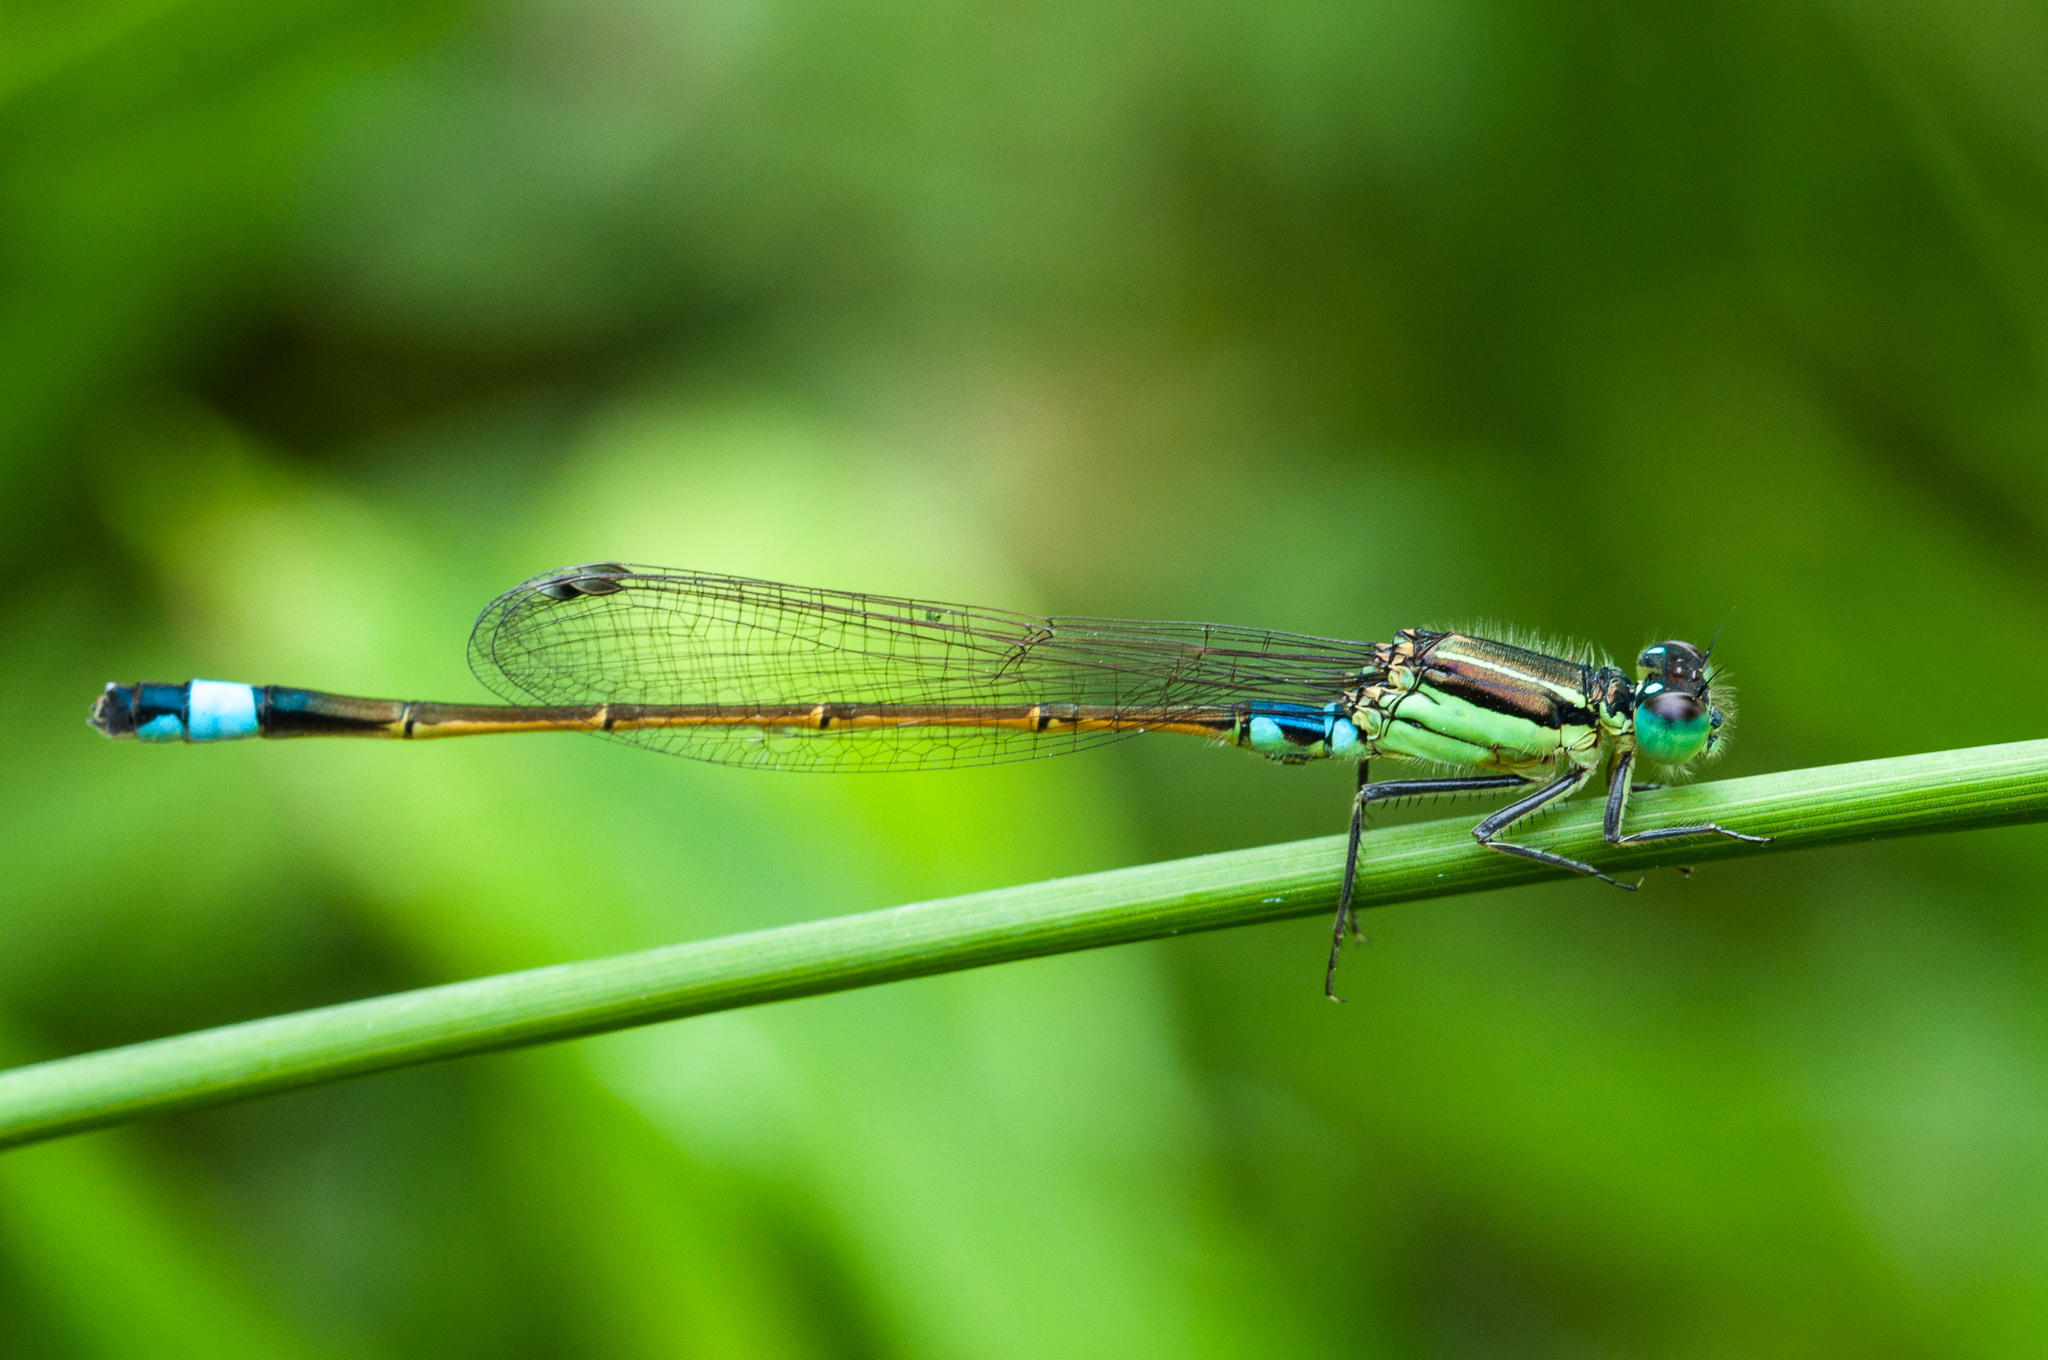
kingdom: Animalia
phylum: Arthropoda
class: Insecta
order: Odonata
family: Coenagrionidae
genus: Ischnura
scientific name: Ischnura senegalensis
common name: Tropical bluetail
